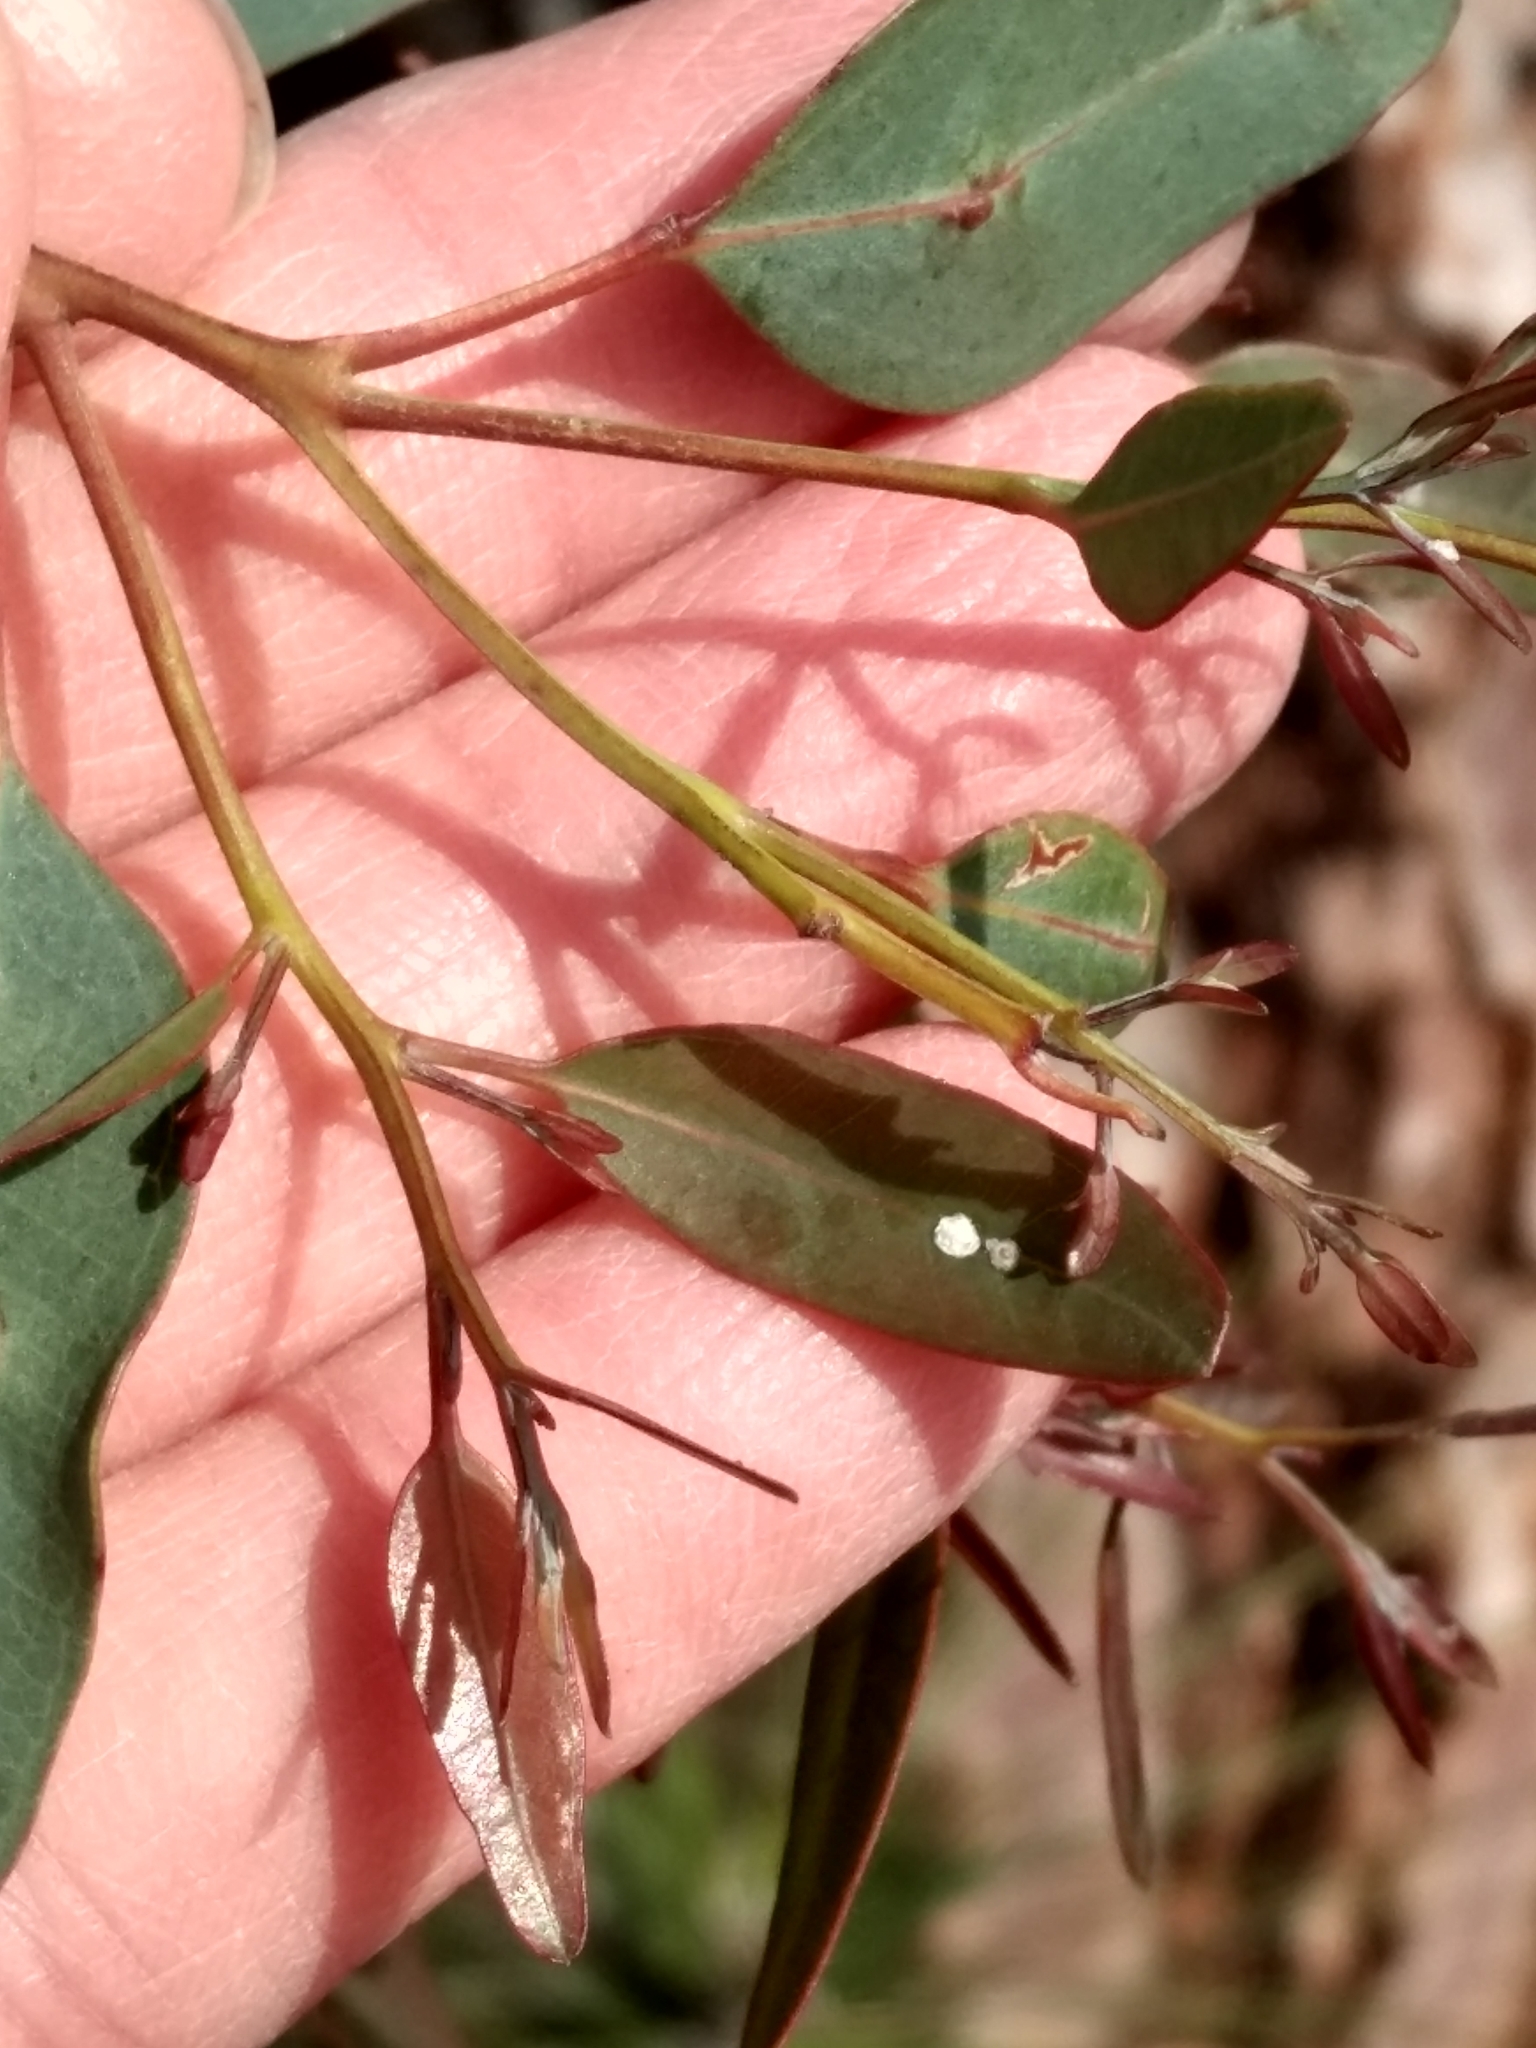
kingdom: Animalia
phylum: Arthropoda
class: Insecta
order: Hemiptera
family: Aphalaridae
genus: Glycaspis
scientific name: Glycaspis brimblecombei
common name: Red gum lerp psyllid
